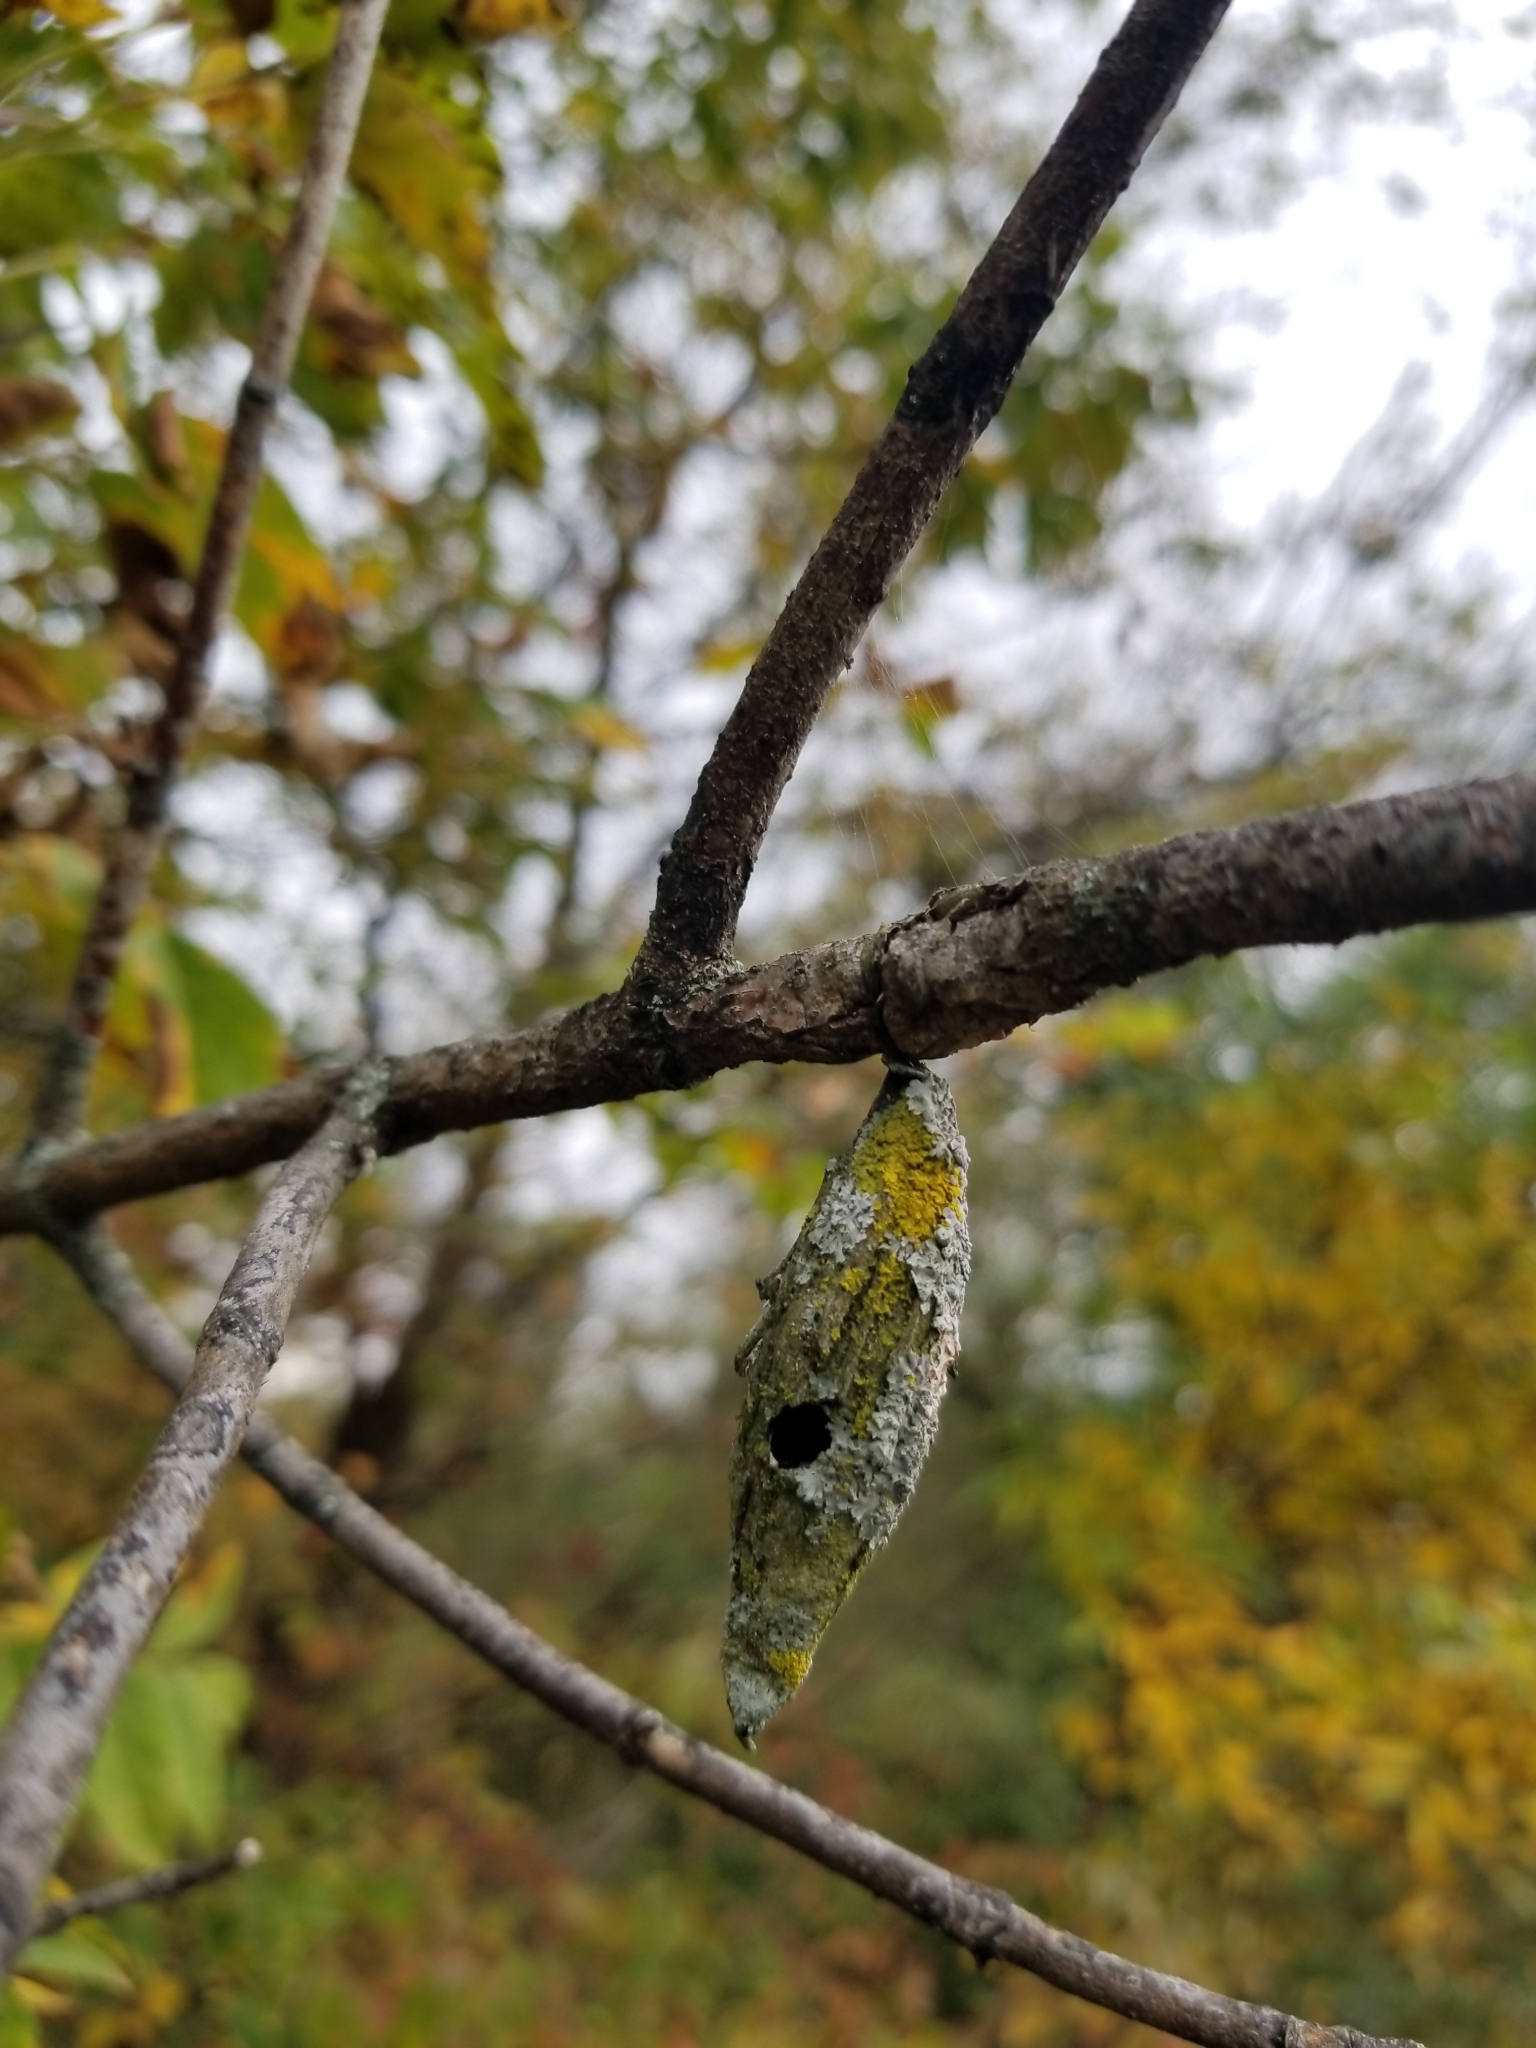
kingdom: Animalia
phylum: Arthropoda
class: Insecta
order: Lepidoptera
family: Psychidae
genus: Thyridopteryx
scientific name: Thyridopteryx ephemeraeformis
